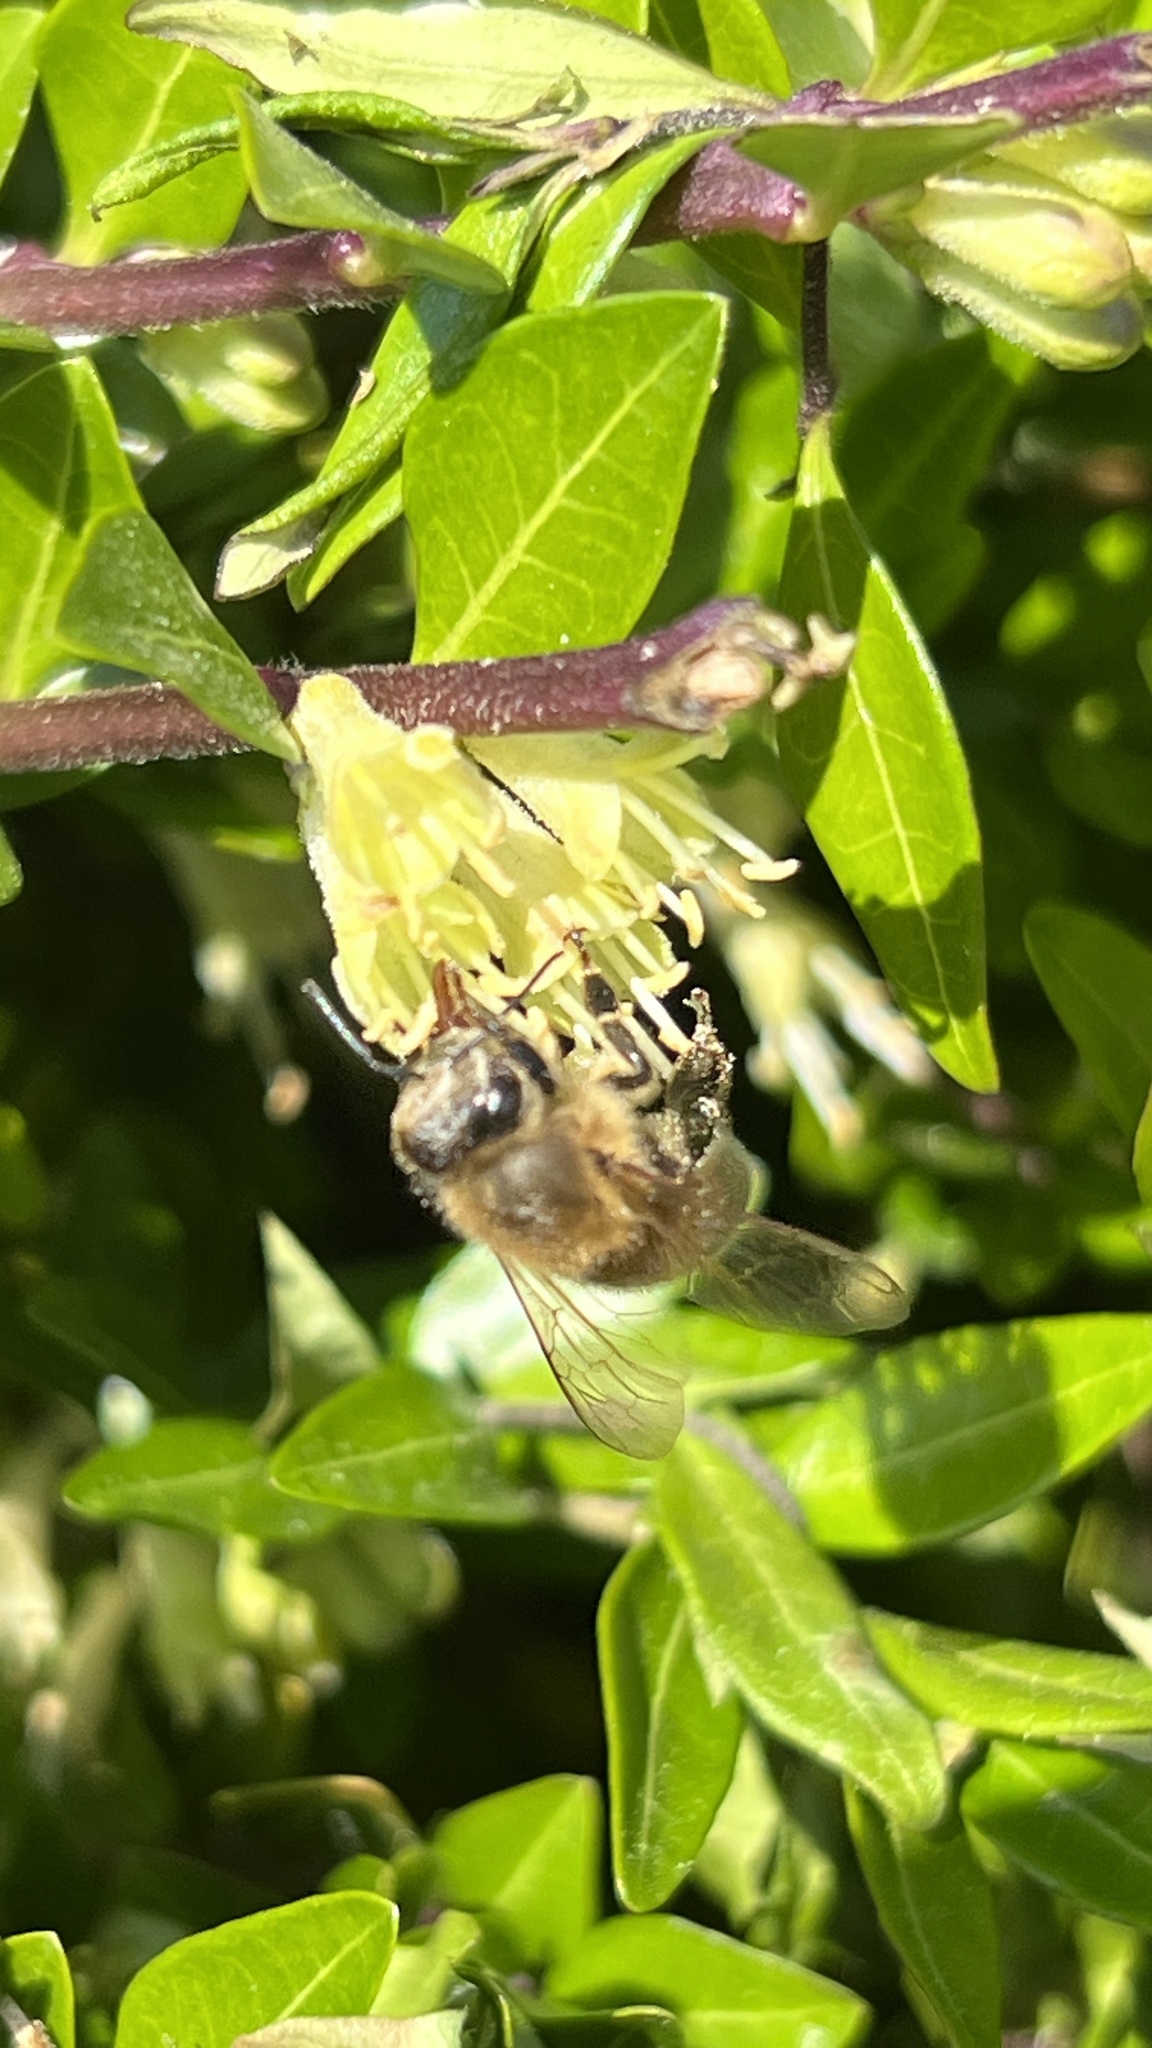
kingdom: Animalia
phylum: Arthropoda
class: Insecta
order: Hymenoptera
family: Apidae
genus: Apis
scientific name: Apis mellifera
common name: Honey bee
